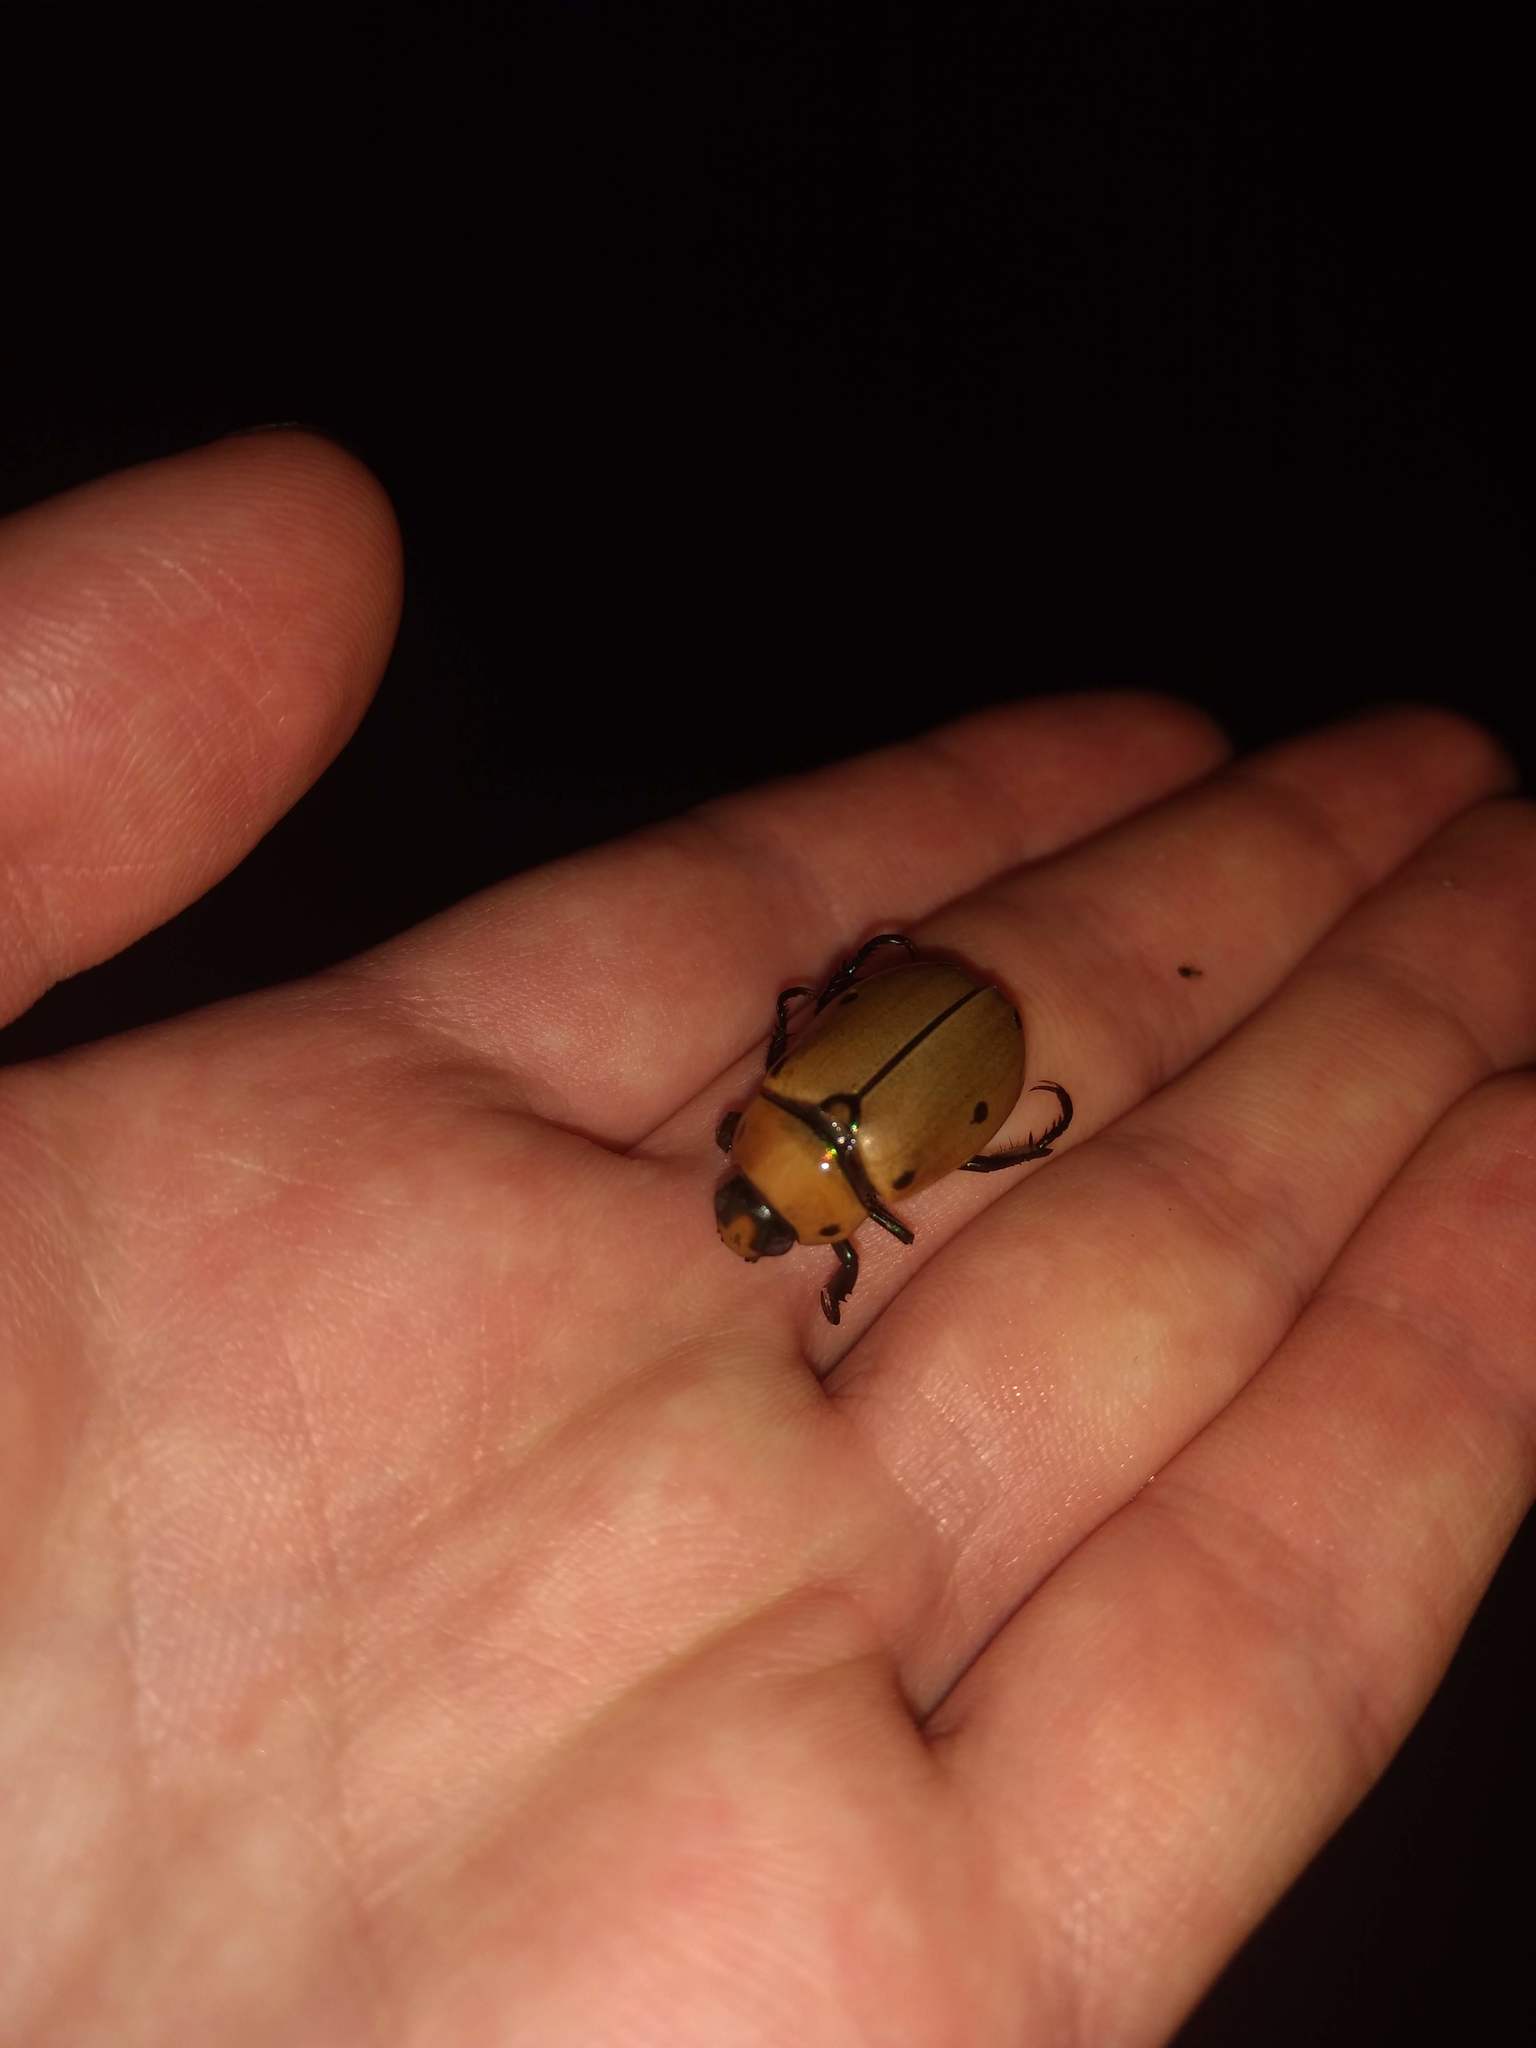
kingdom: Animalia
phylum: Arthropoda
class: Insecta
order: Coleoptera
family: Scarabaeidae
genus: Pelidnota
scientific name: Pelidnota punctata
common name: Grapevine beetle
